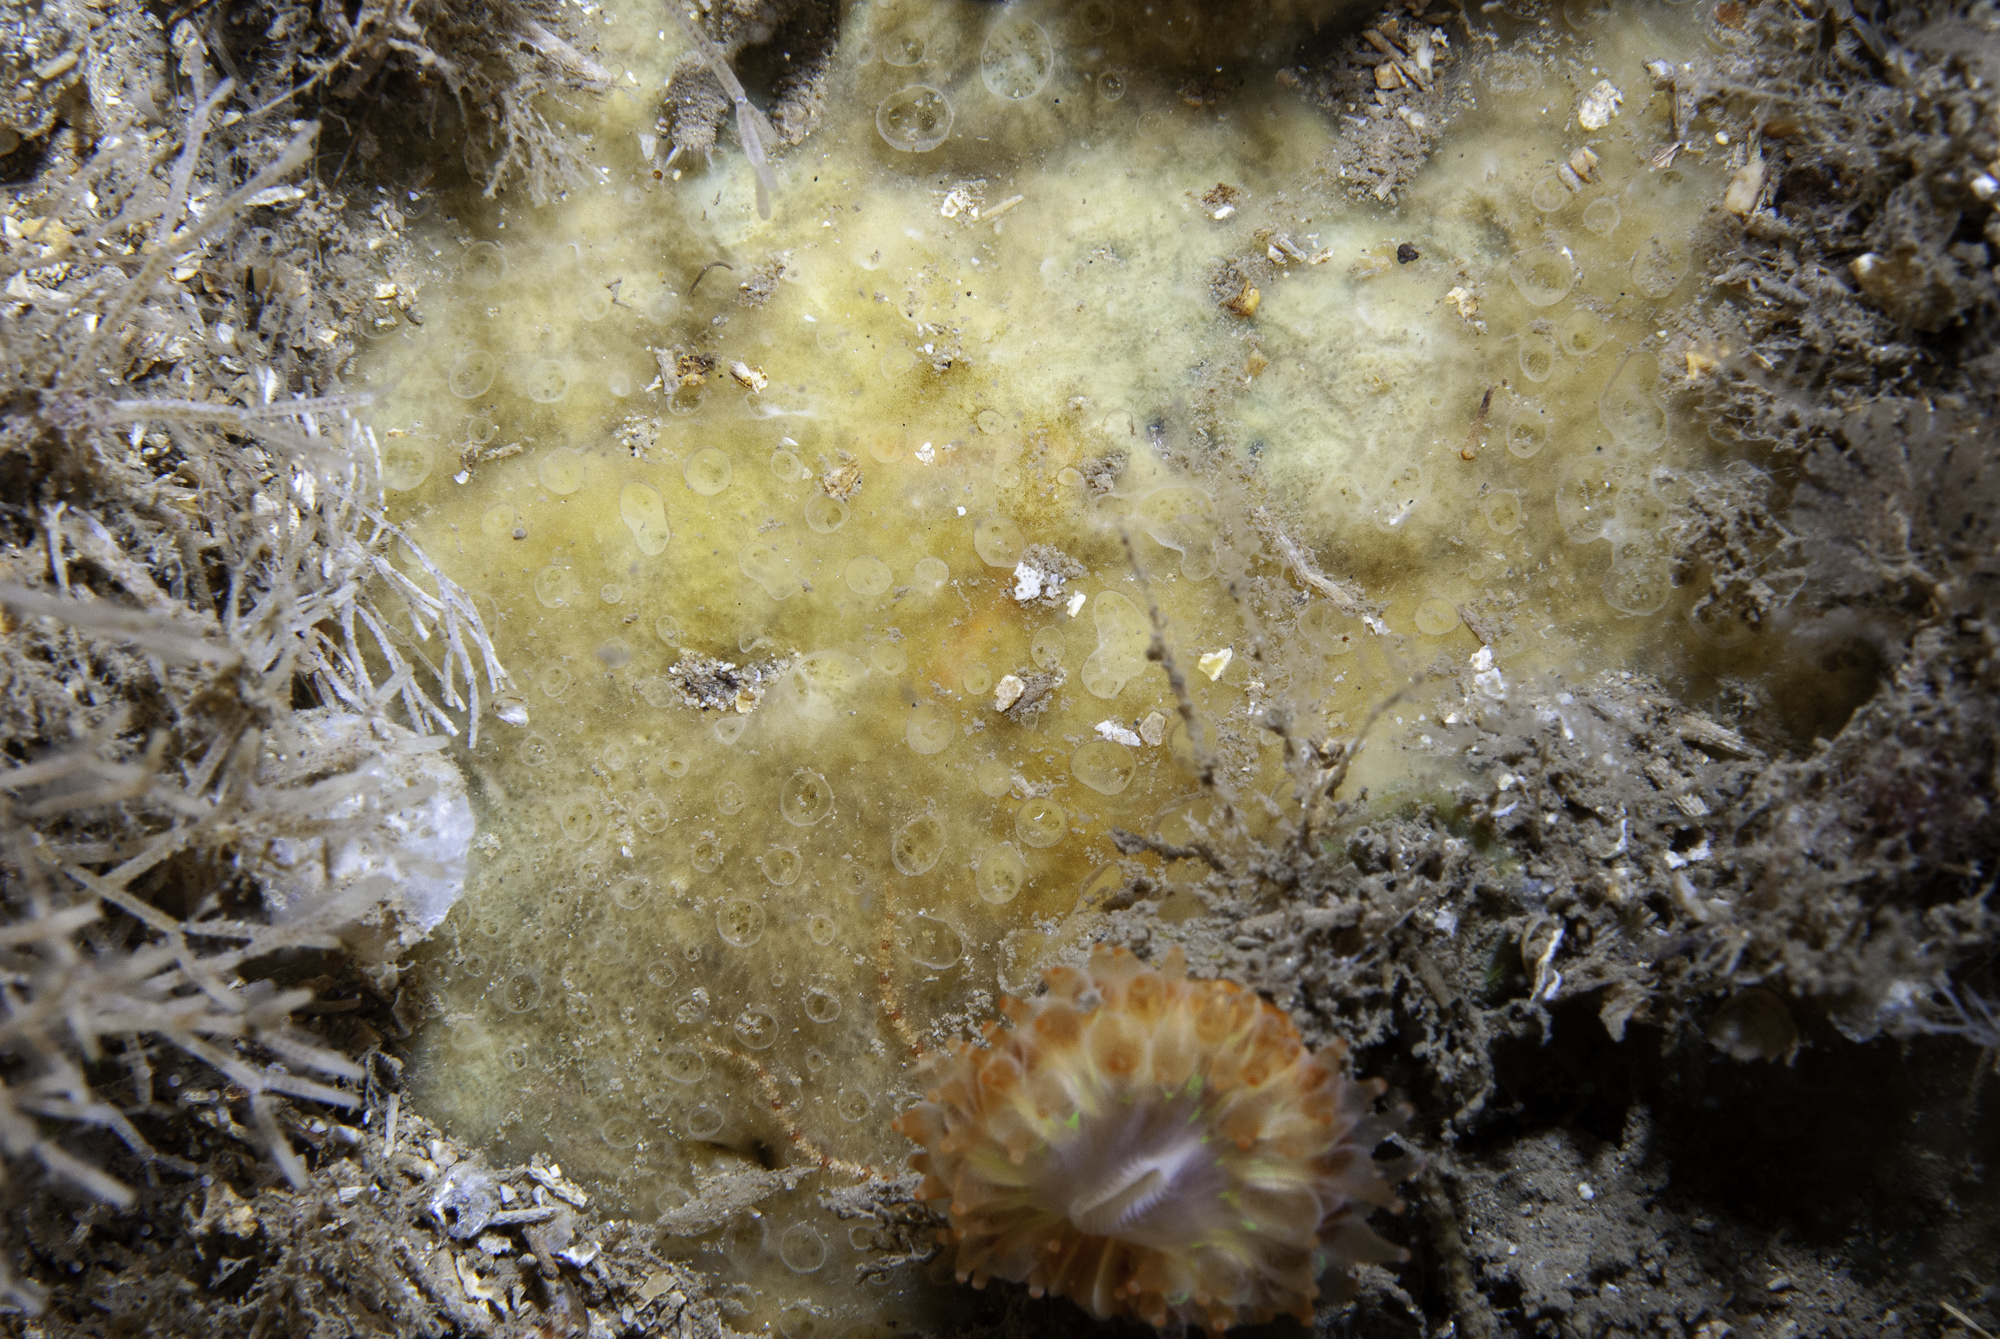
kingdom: Animalia
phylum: Porifera
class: Demospongiae
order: Poecilosclerida
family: Hymedesmiidae
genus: Hymedesmia
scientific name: Hymedesmia primitiva
